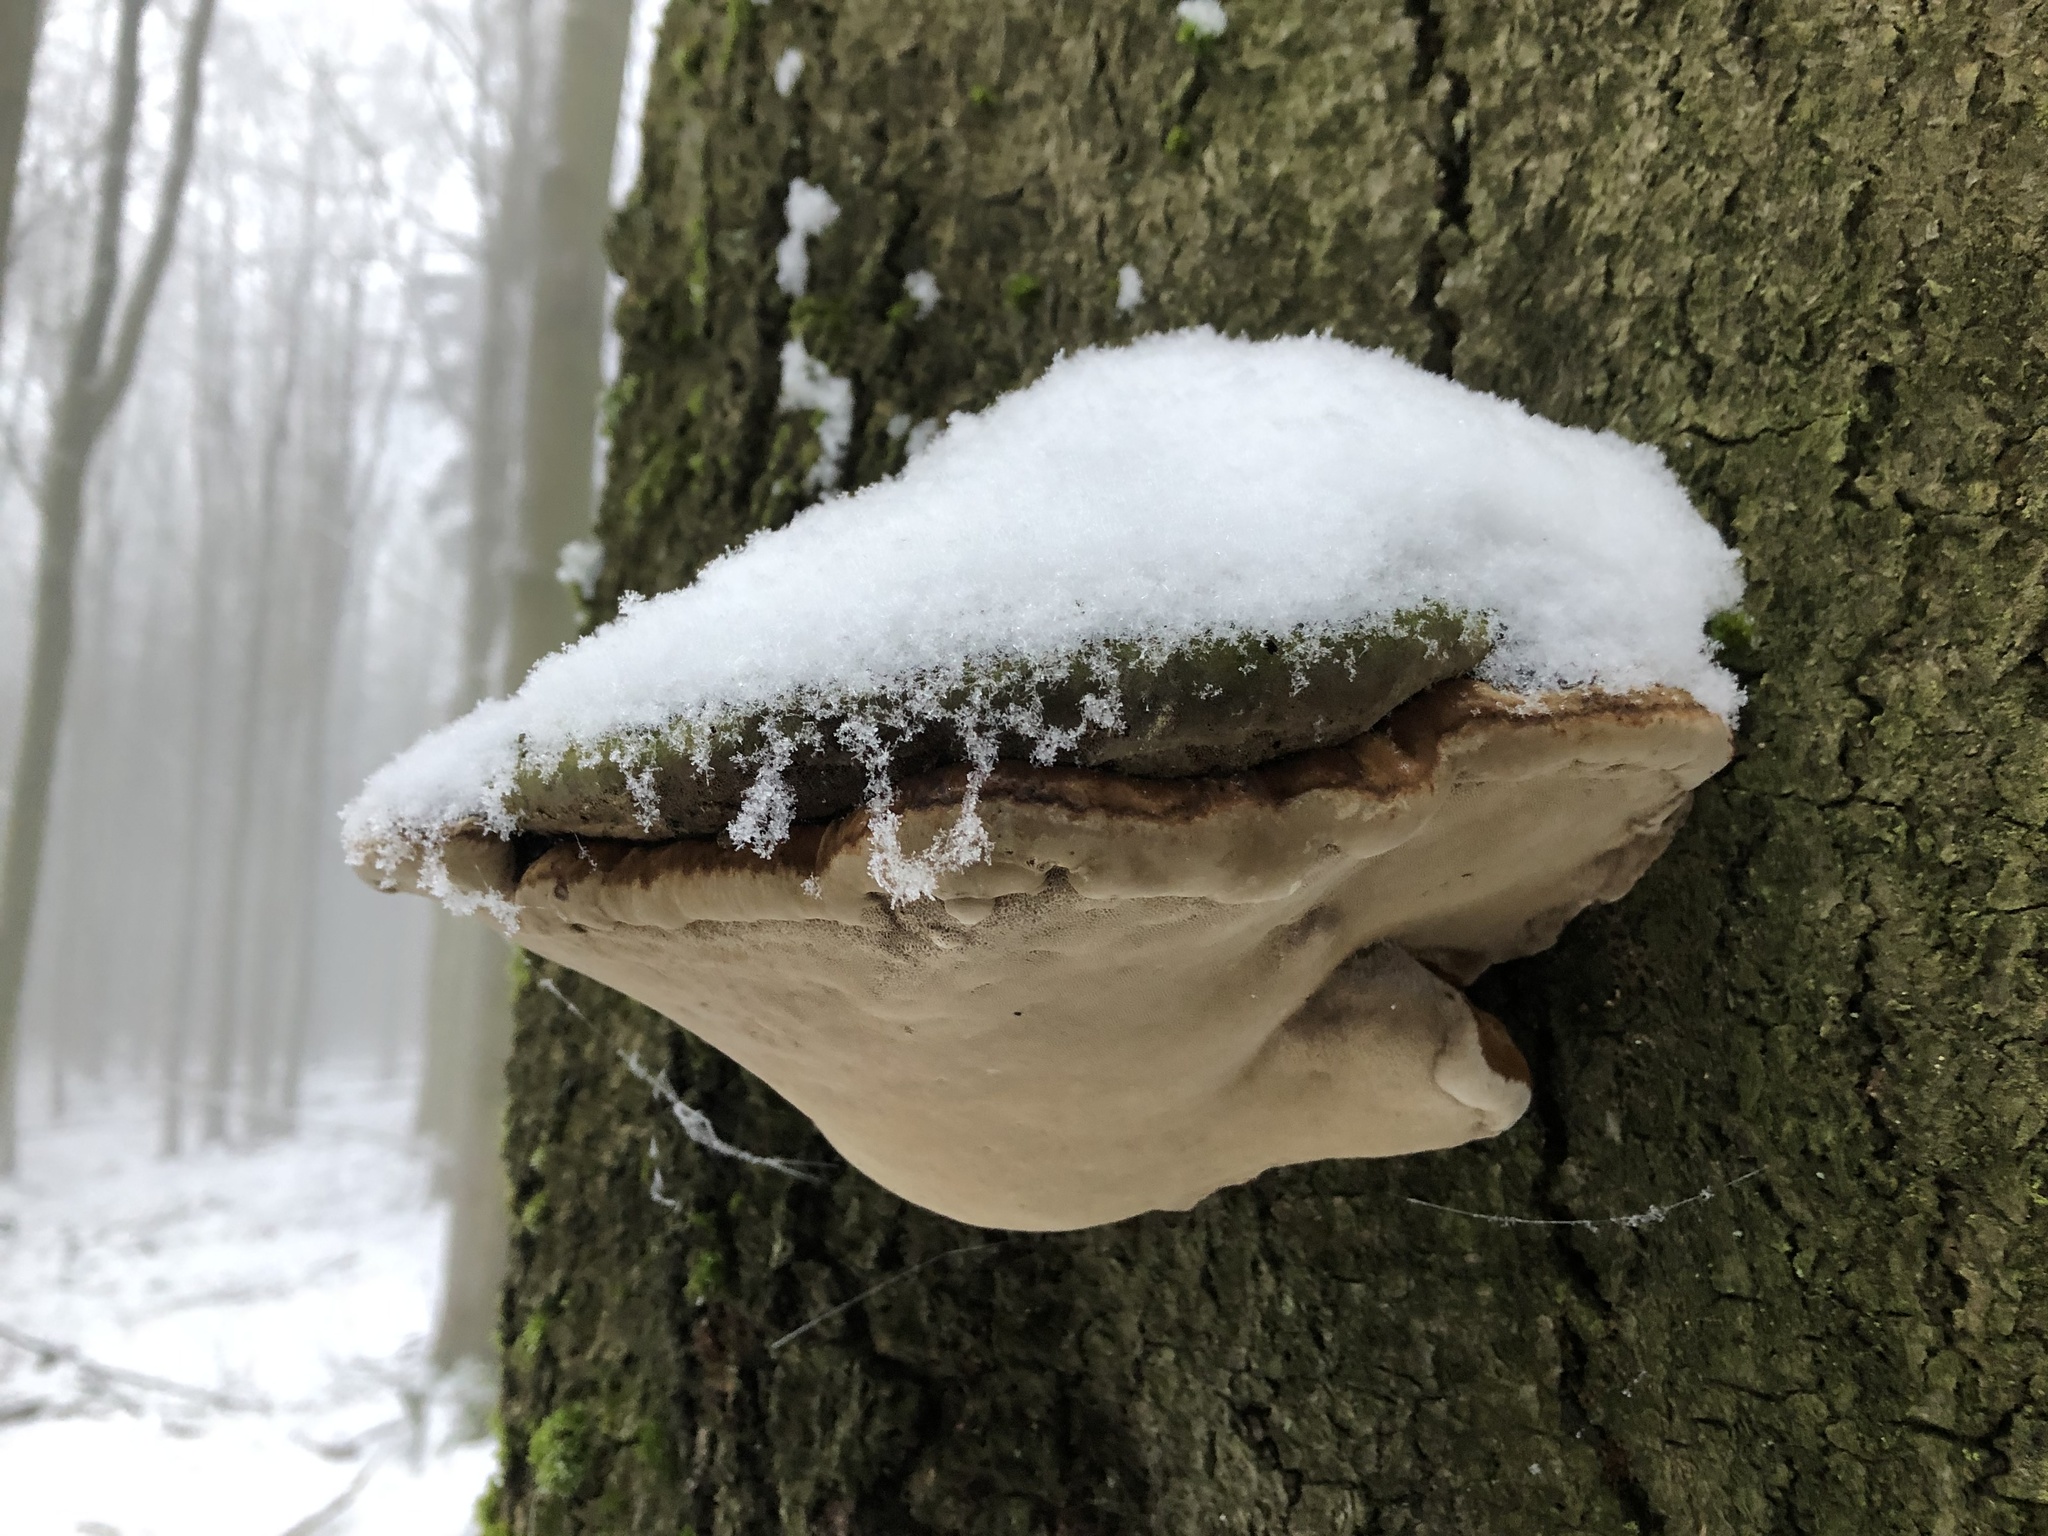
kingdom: Fungi
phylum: Basidiomycota
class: Agaricomycetes
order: Polyporales
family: Polyporaceae
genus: Fomes
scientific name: Fomes fomentarius
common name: Hoof fungus
